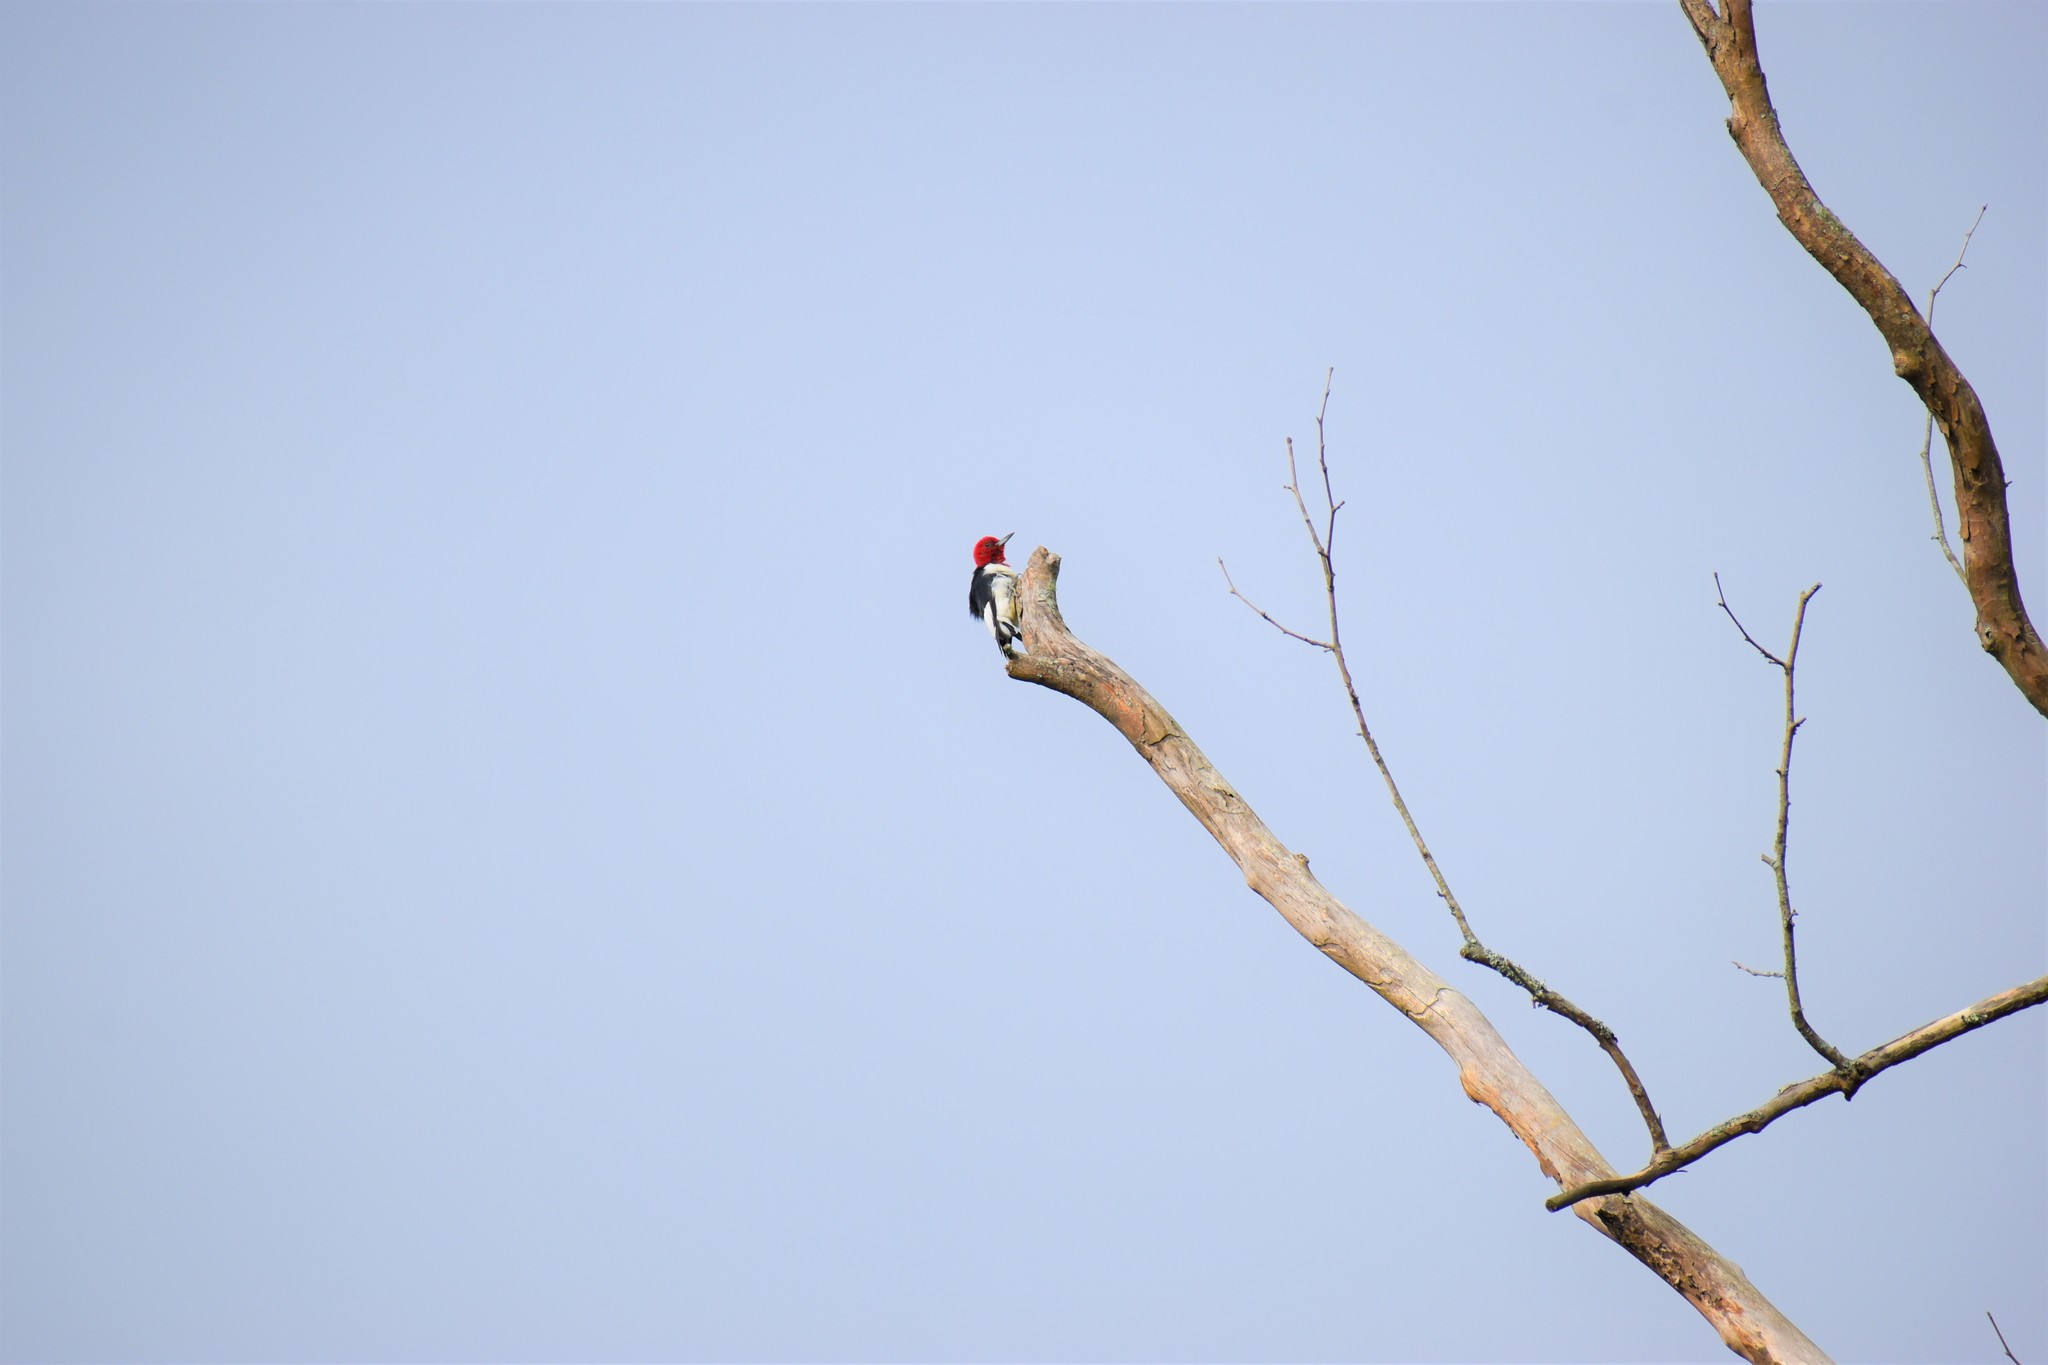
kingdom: Animalia
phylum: Chordata
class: Aves
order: Piciformes
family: Picidae
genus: Melanerpes
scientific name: Melanerpes erythrocephalus
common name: Red-headed woodpecker
